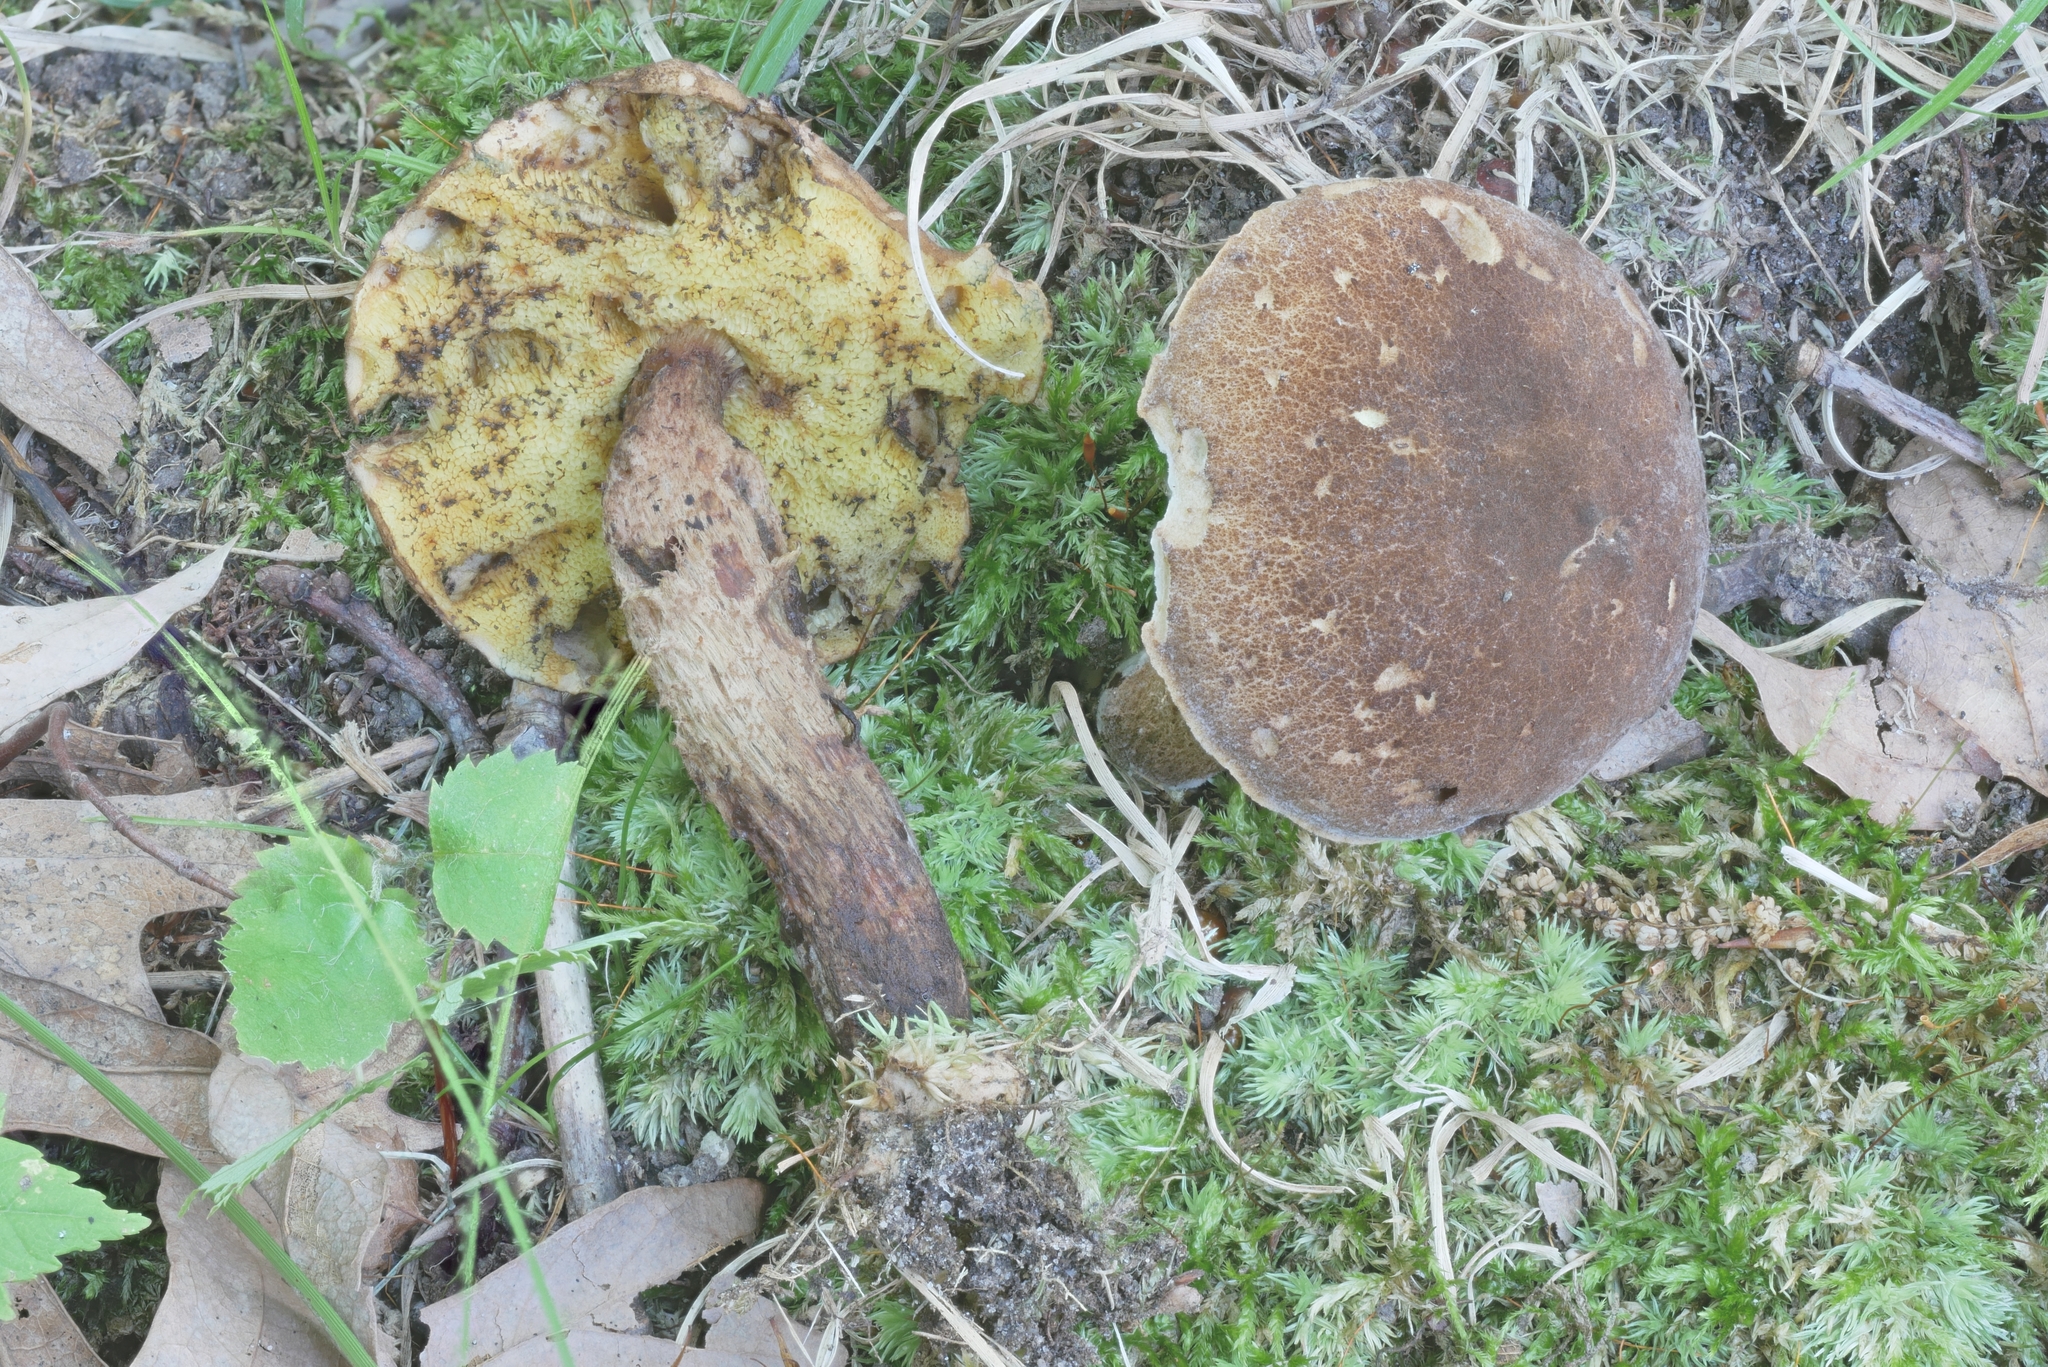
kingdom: Fungi
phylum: Basidiomycota
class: Agaricomycetes
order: Boletales
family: Boletaceae
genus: Boletellus
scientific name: Boletellus chrysenteroides
